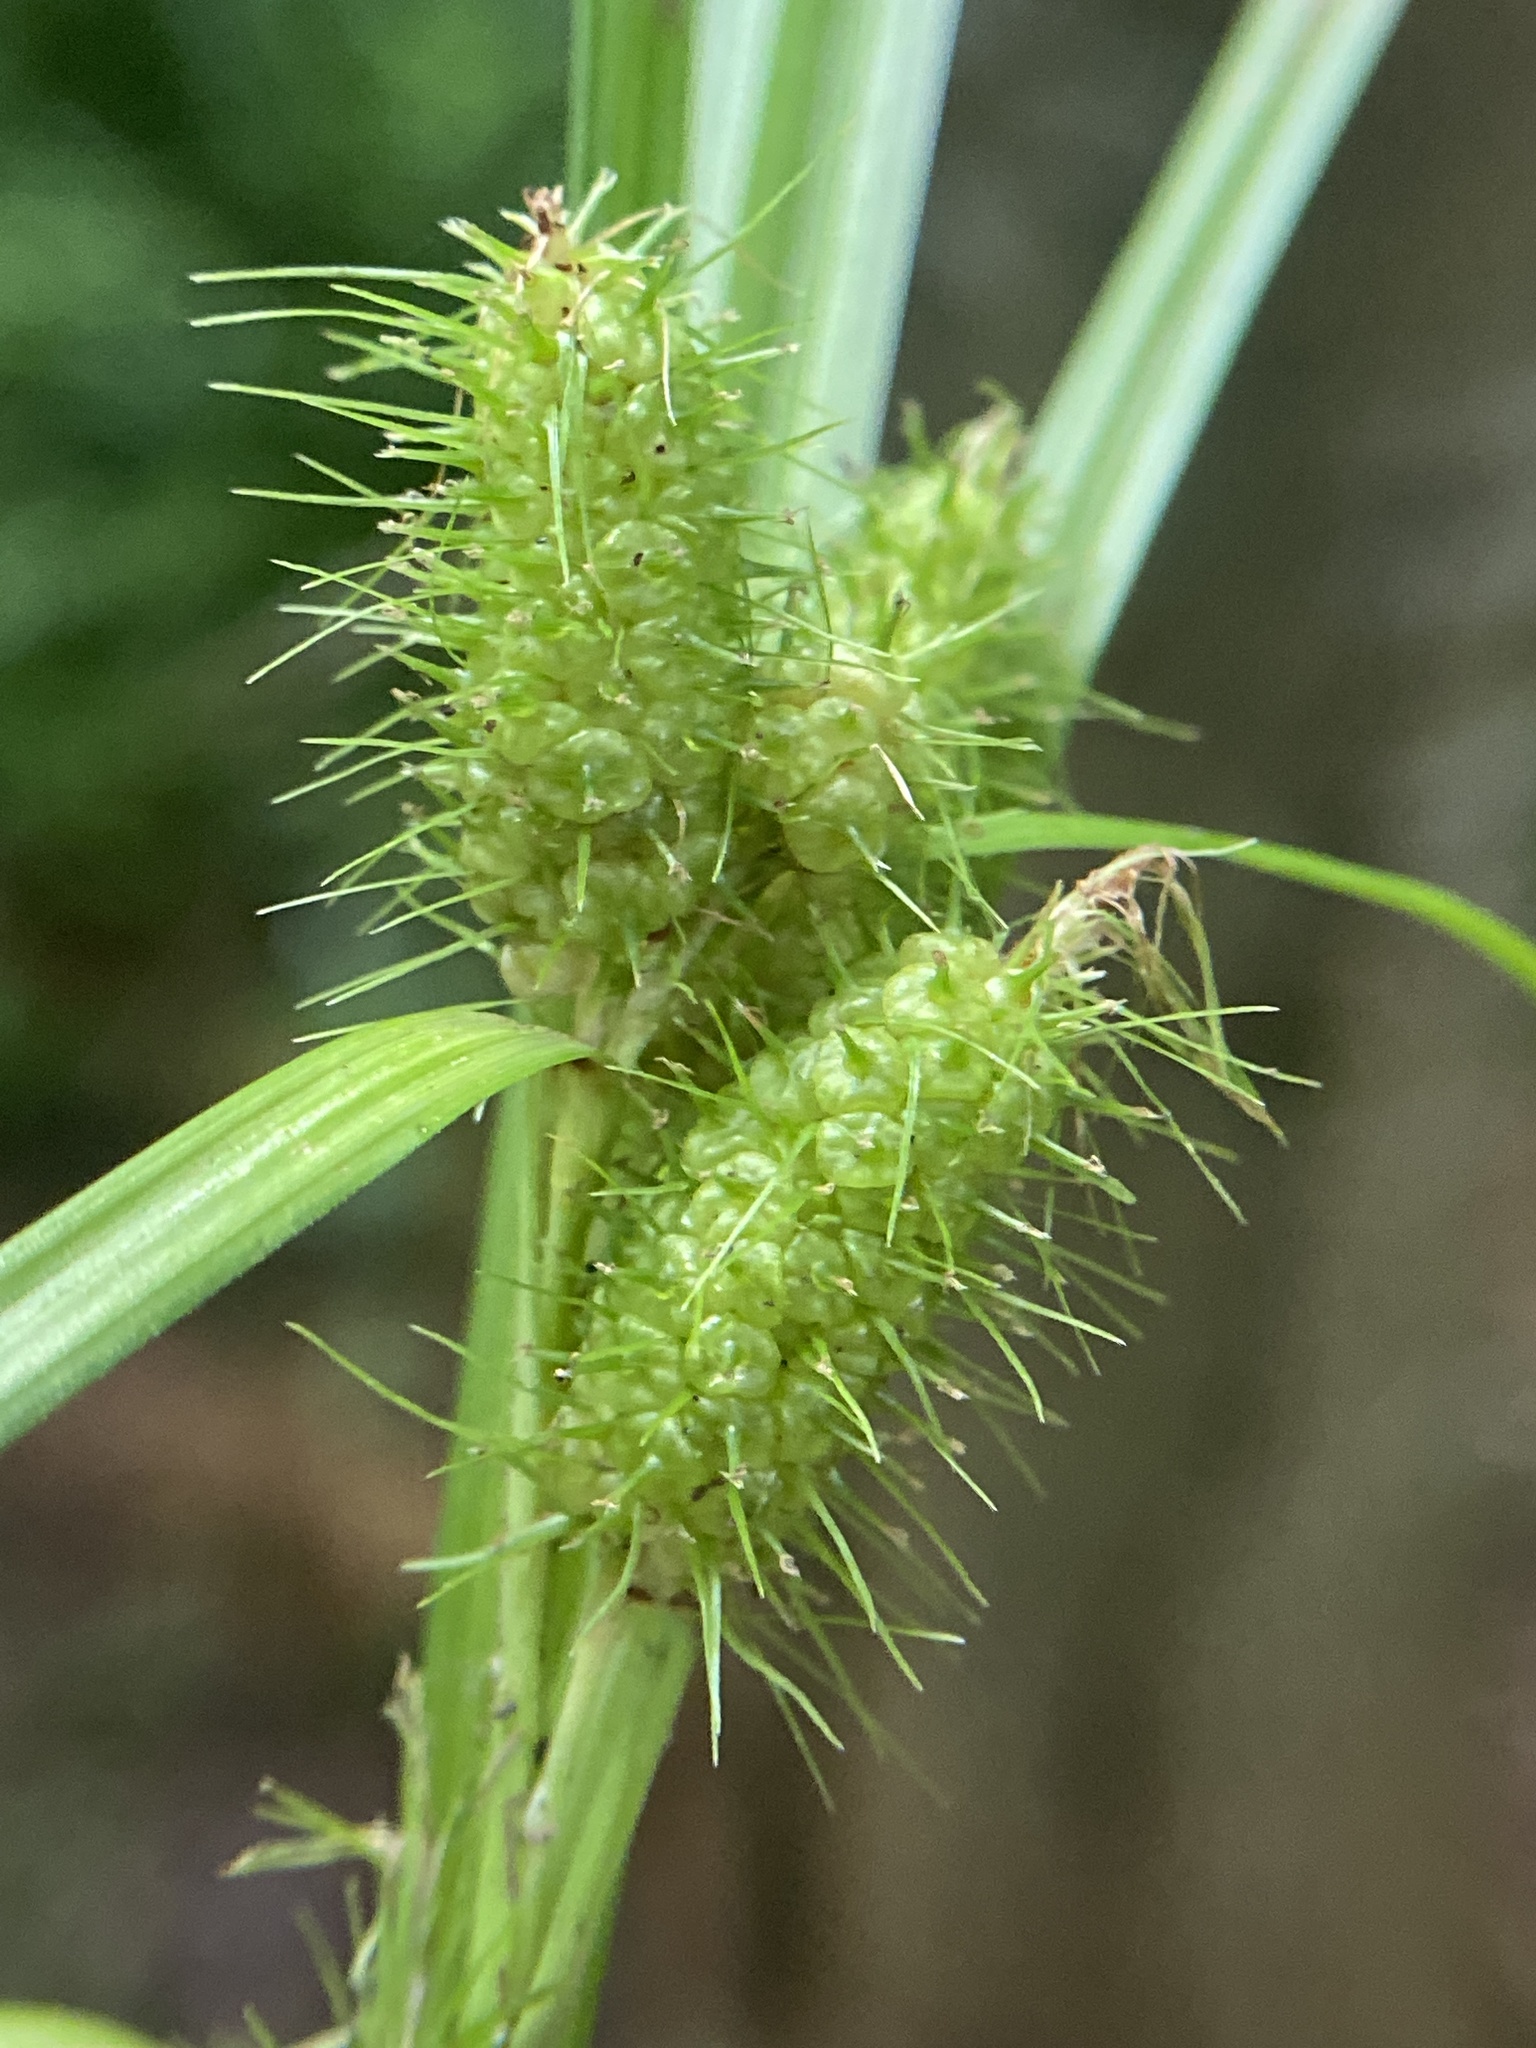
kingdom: Plantae
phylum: Tracheophyta
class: Liliopsida
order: Poales
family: Cyperaceae
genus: Carex
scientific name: Carex frankii
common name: Frank's sedge
